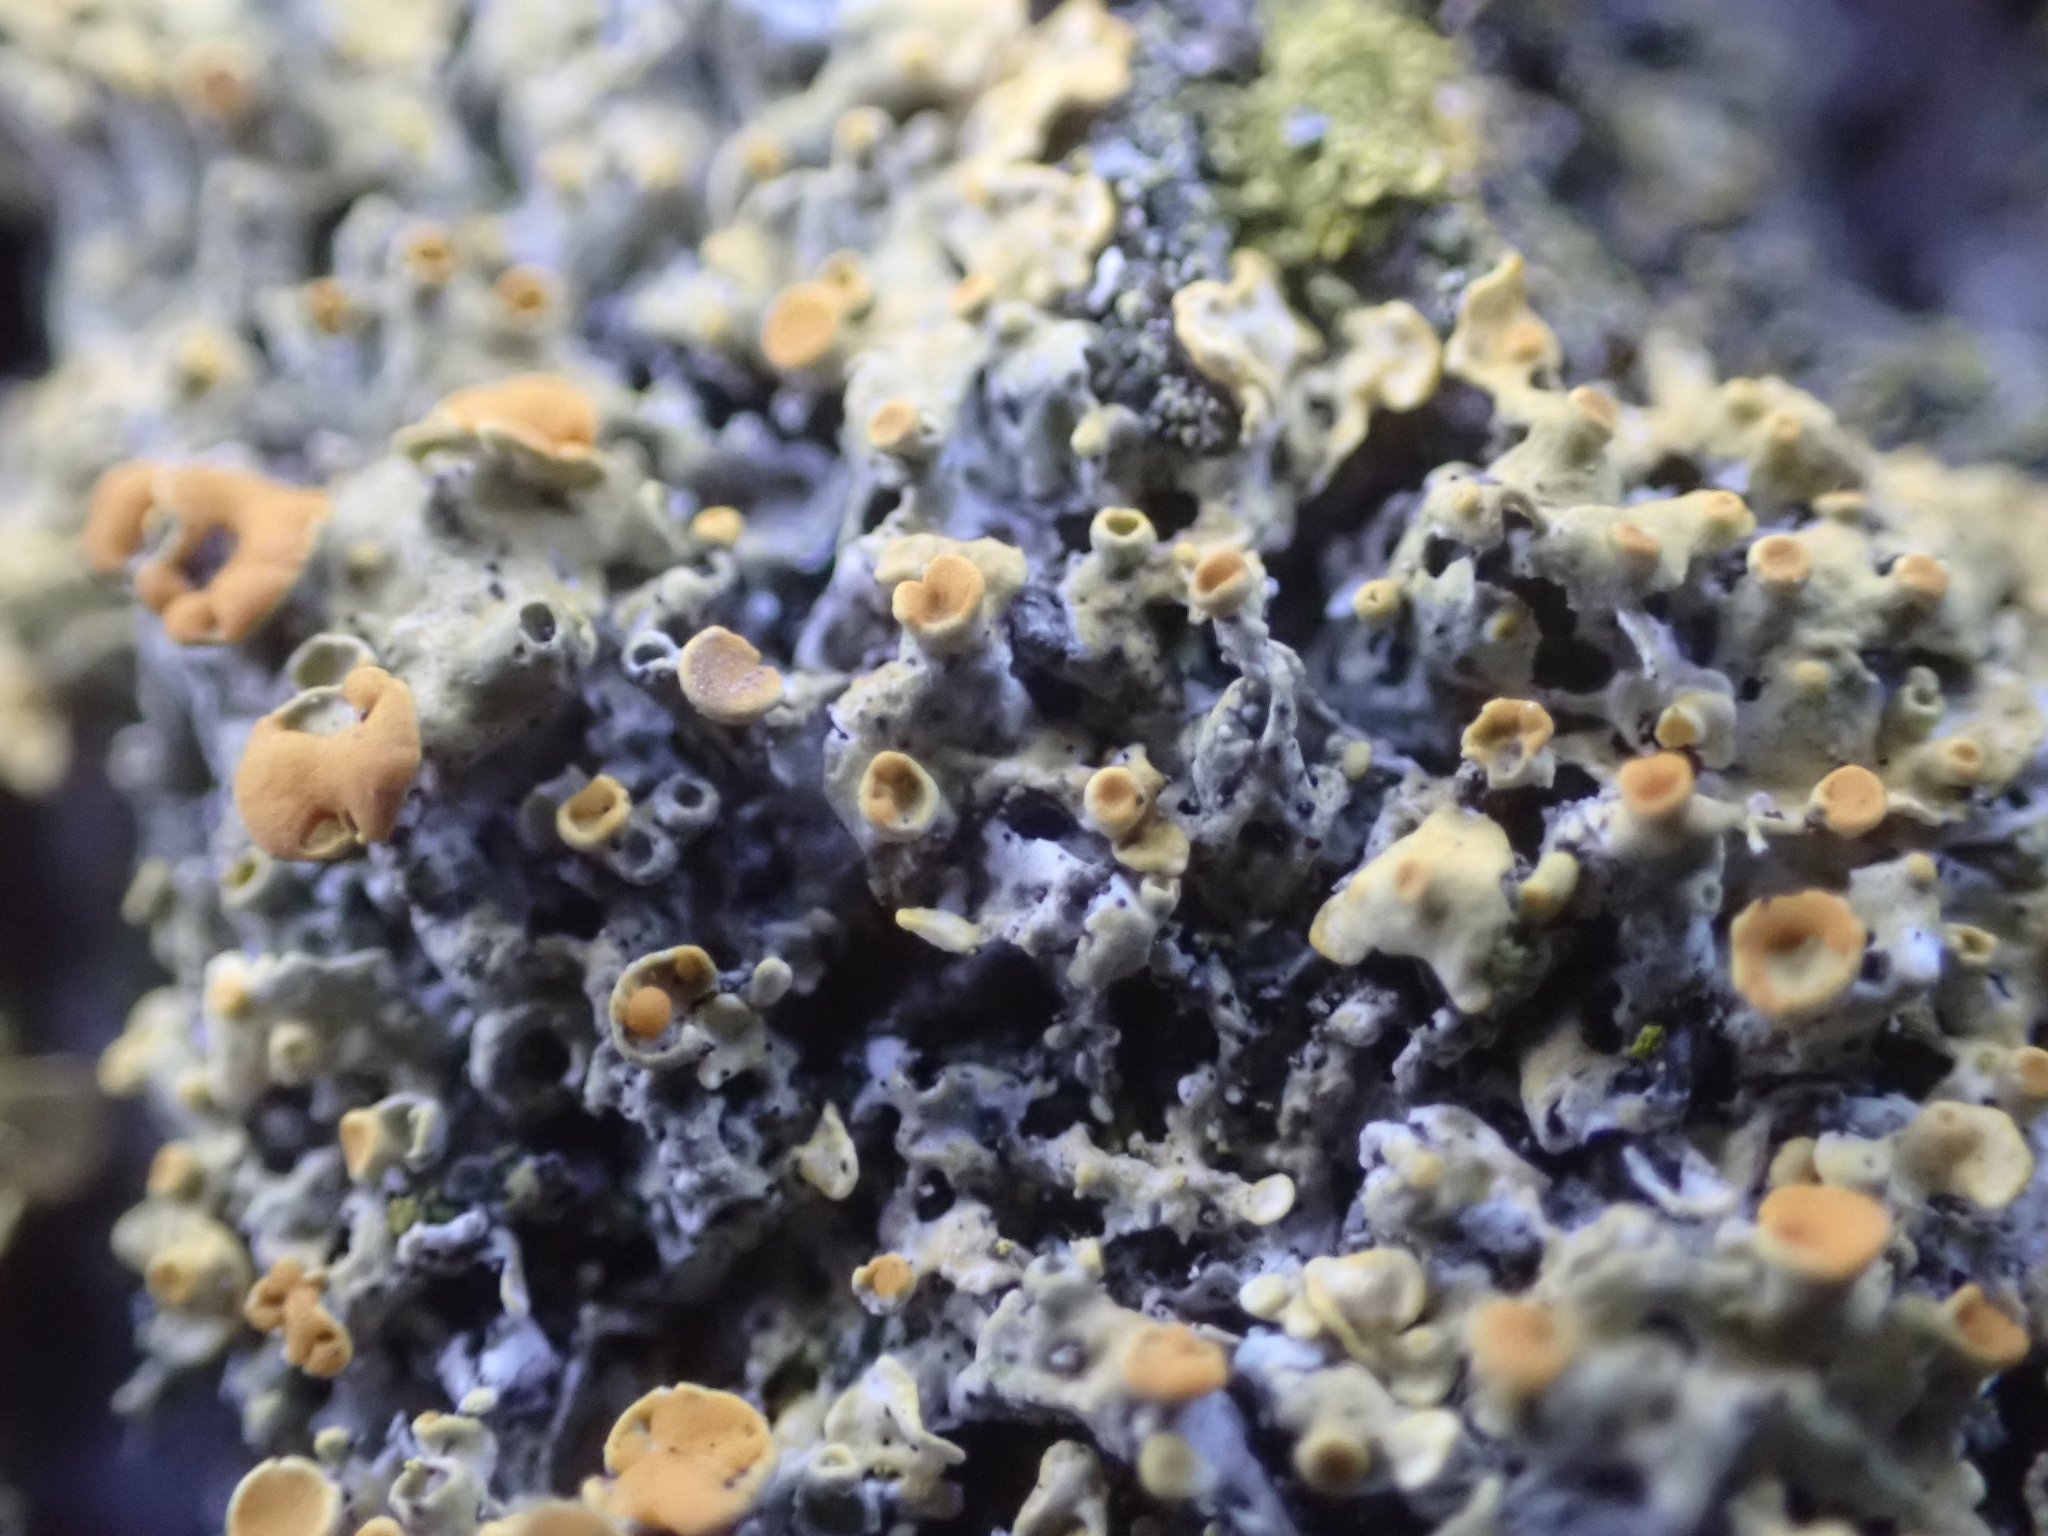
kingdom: Fungi
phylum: Ascomycota
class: Lecanoromycetes
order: Teloschistales
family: Teloschistaceae
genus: Xanthoria
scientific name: Xanthoria parietina
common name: Common orange lichen
